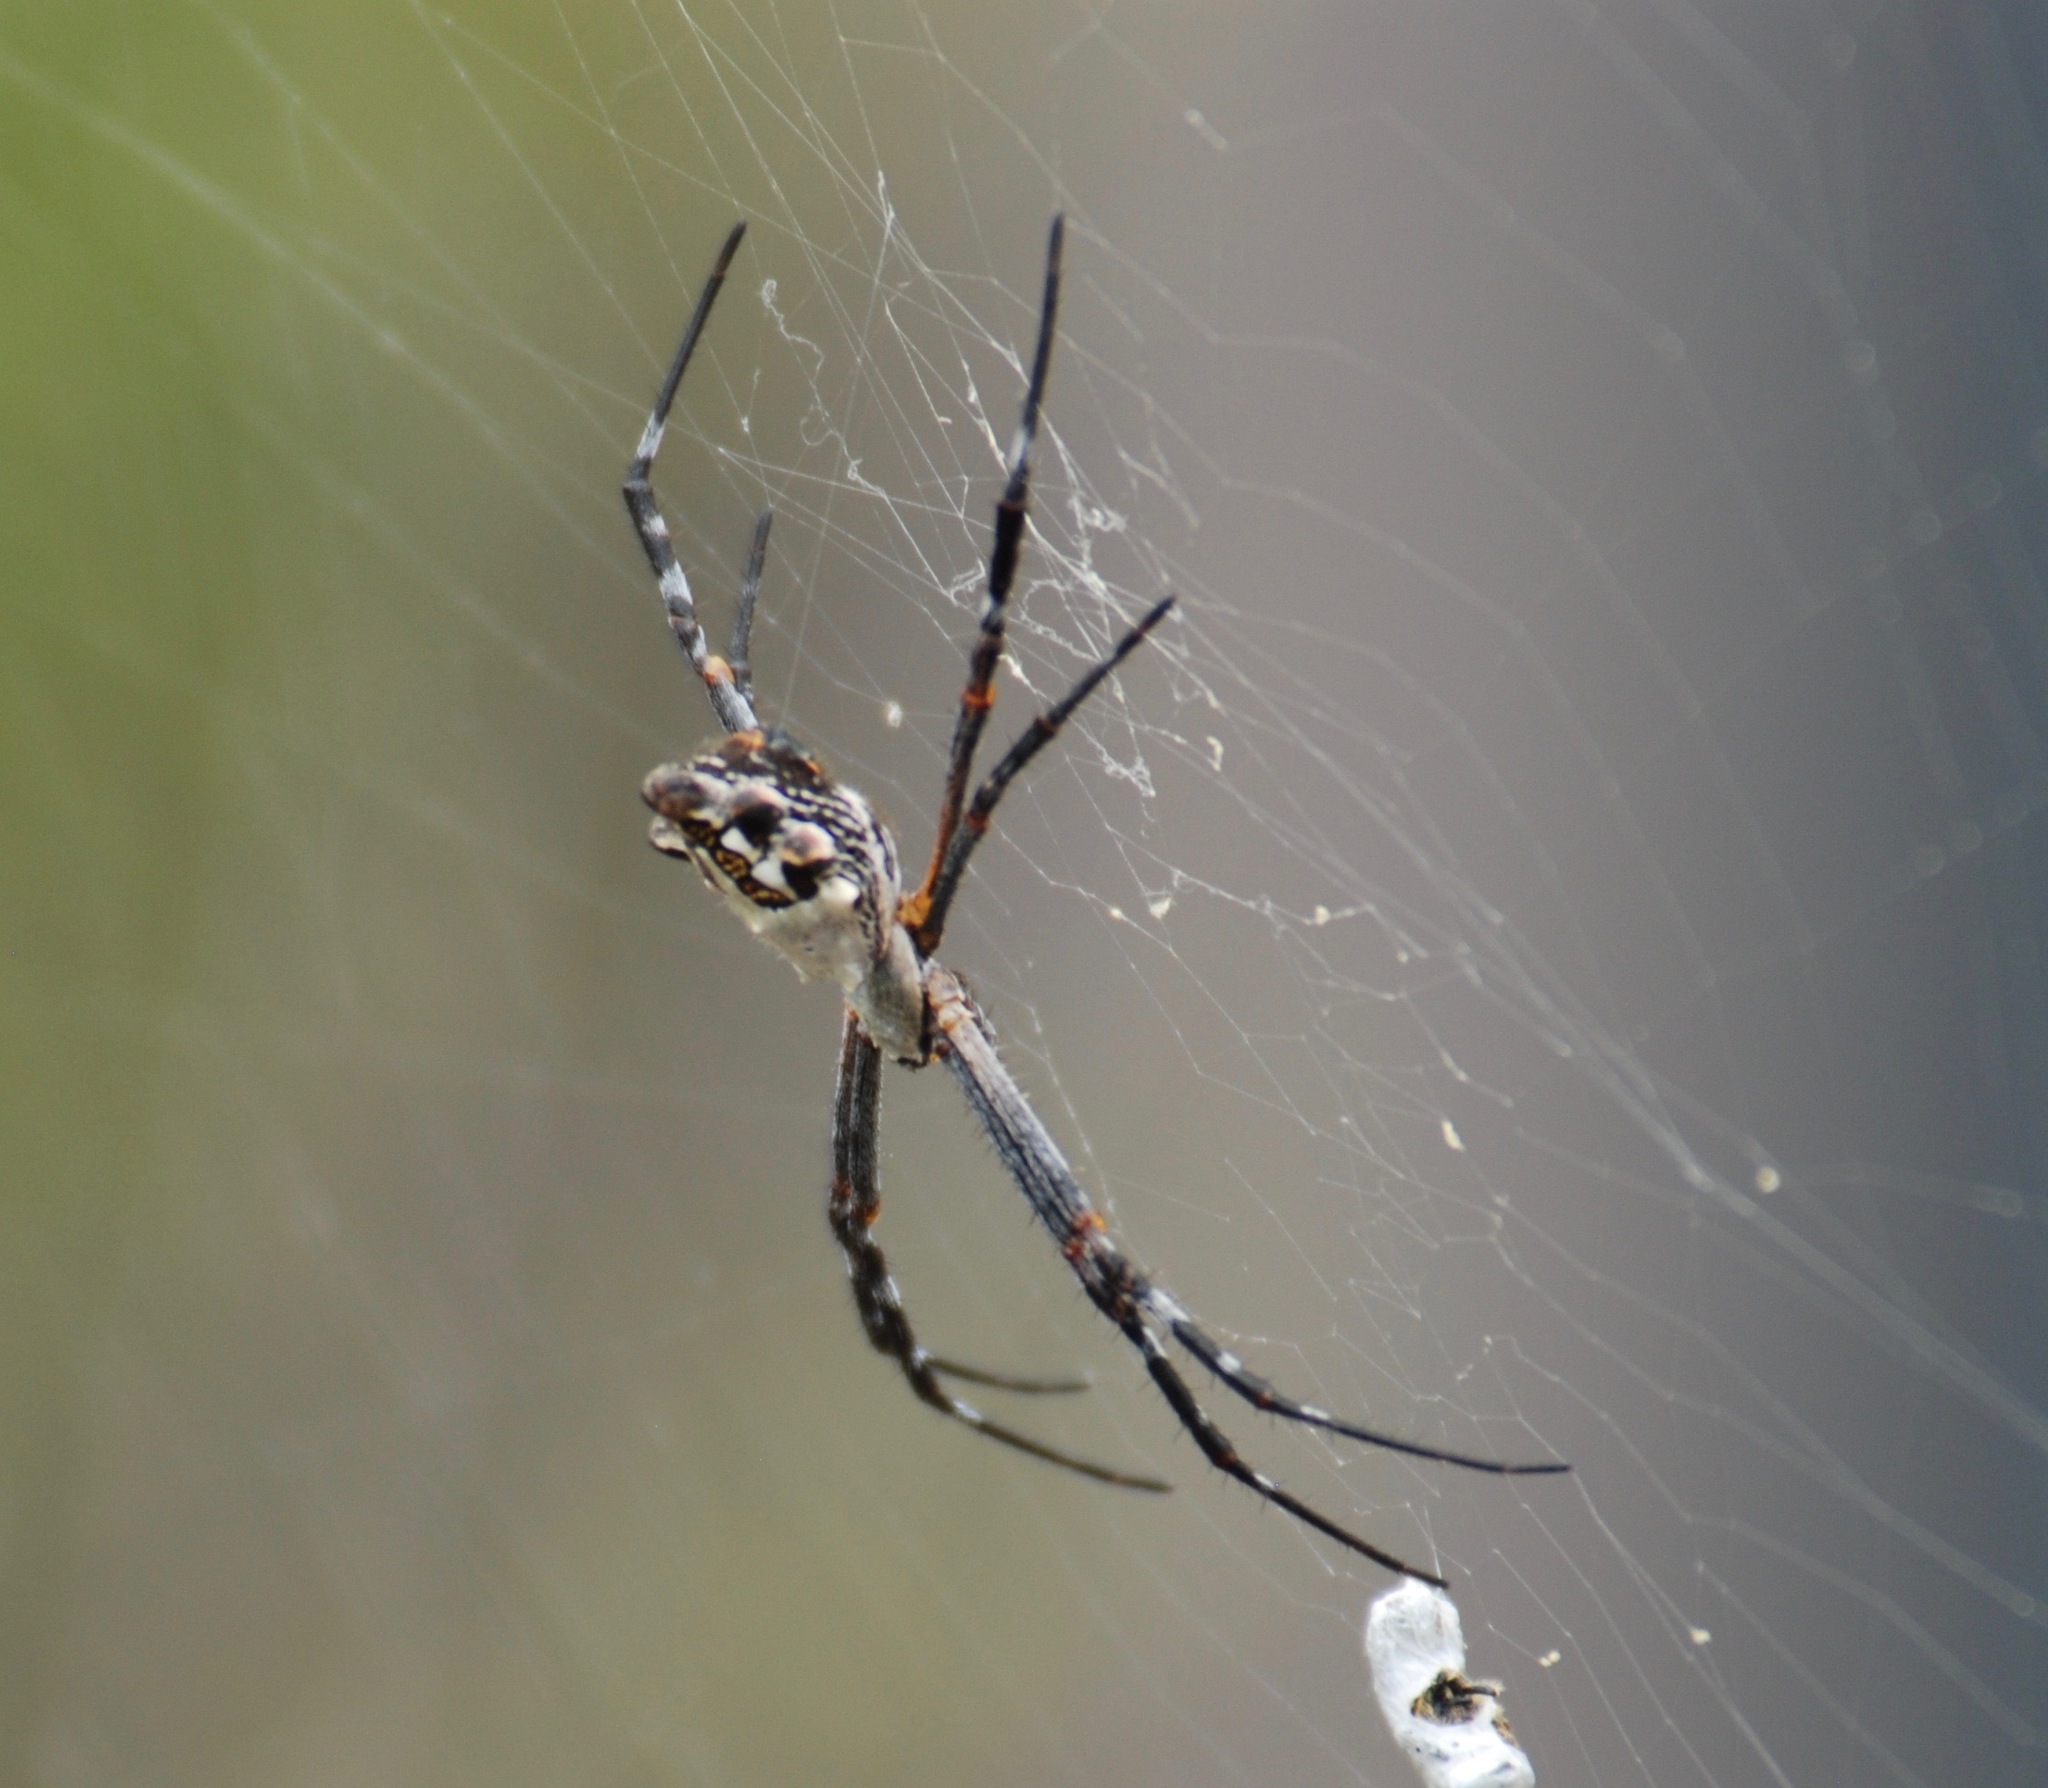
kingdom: Animalia
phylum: Arthropoda
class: Arachnida
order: Araneae
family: Araneidae
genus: Argiope
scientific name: Argiope argentata
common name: Orb weavers
